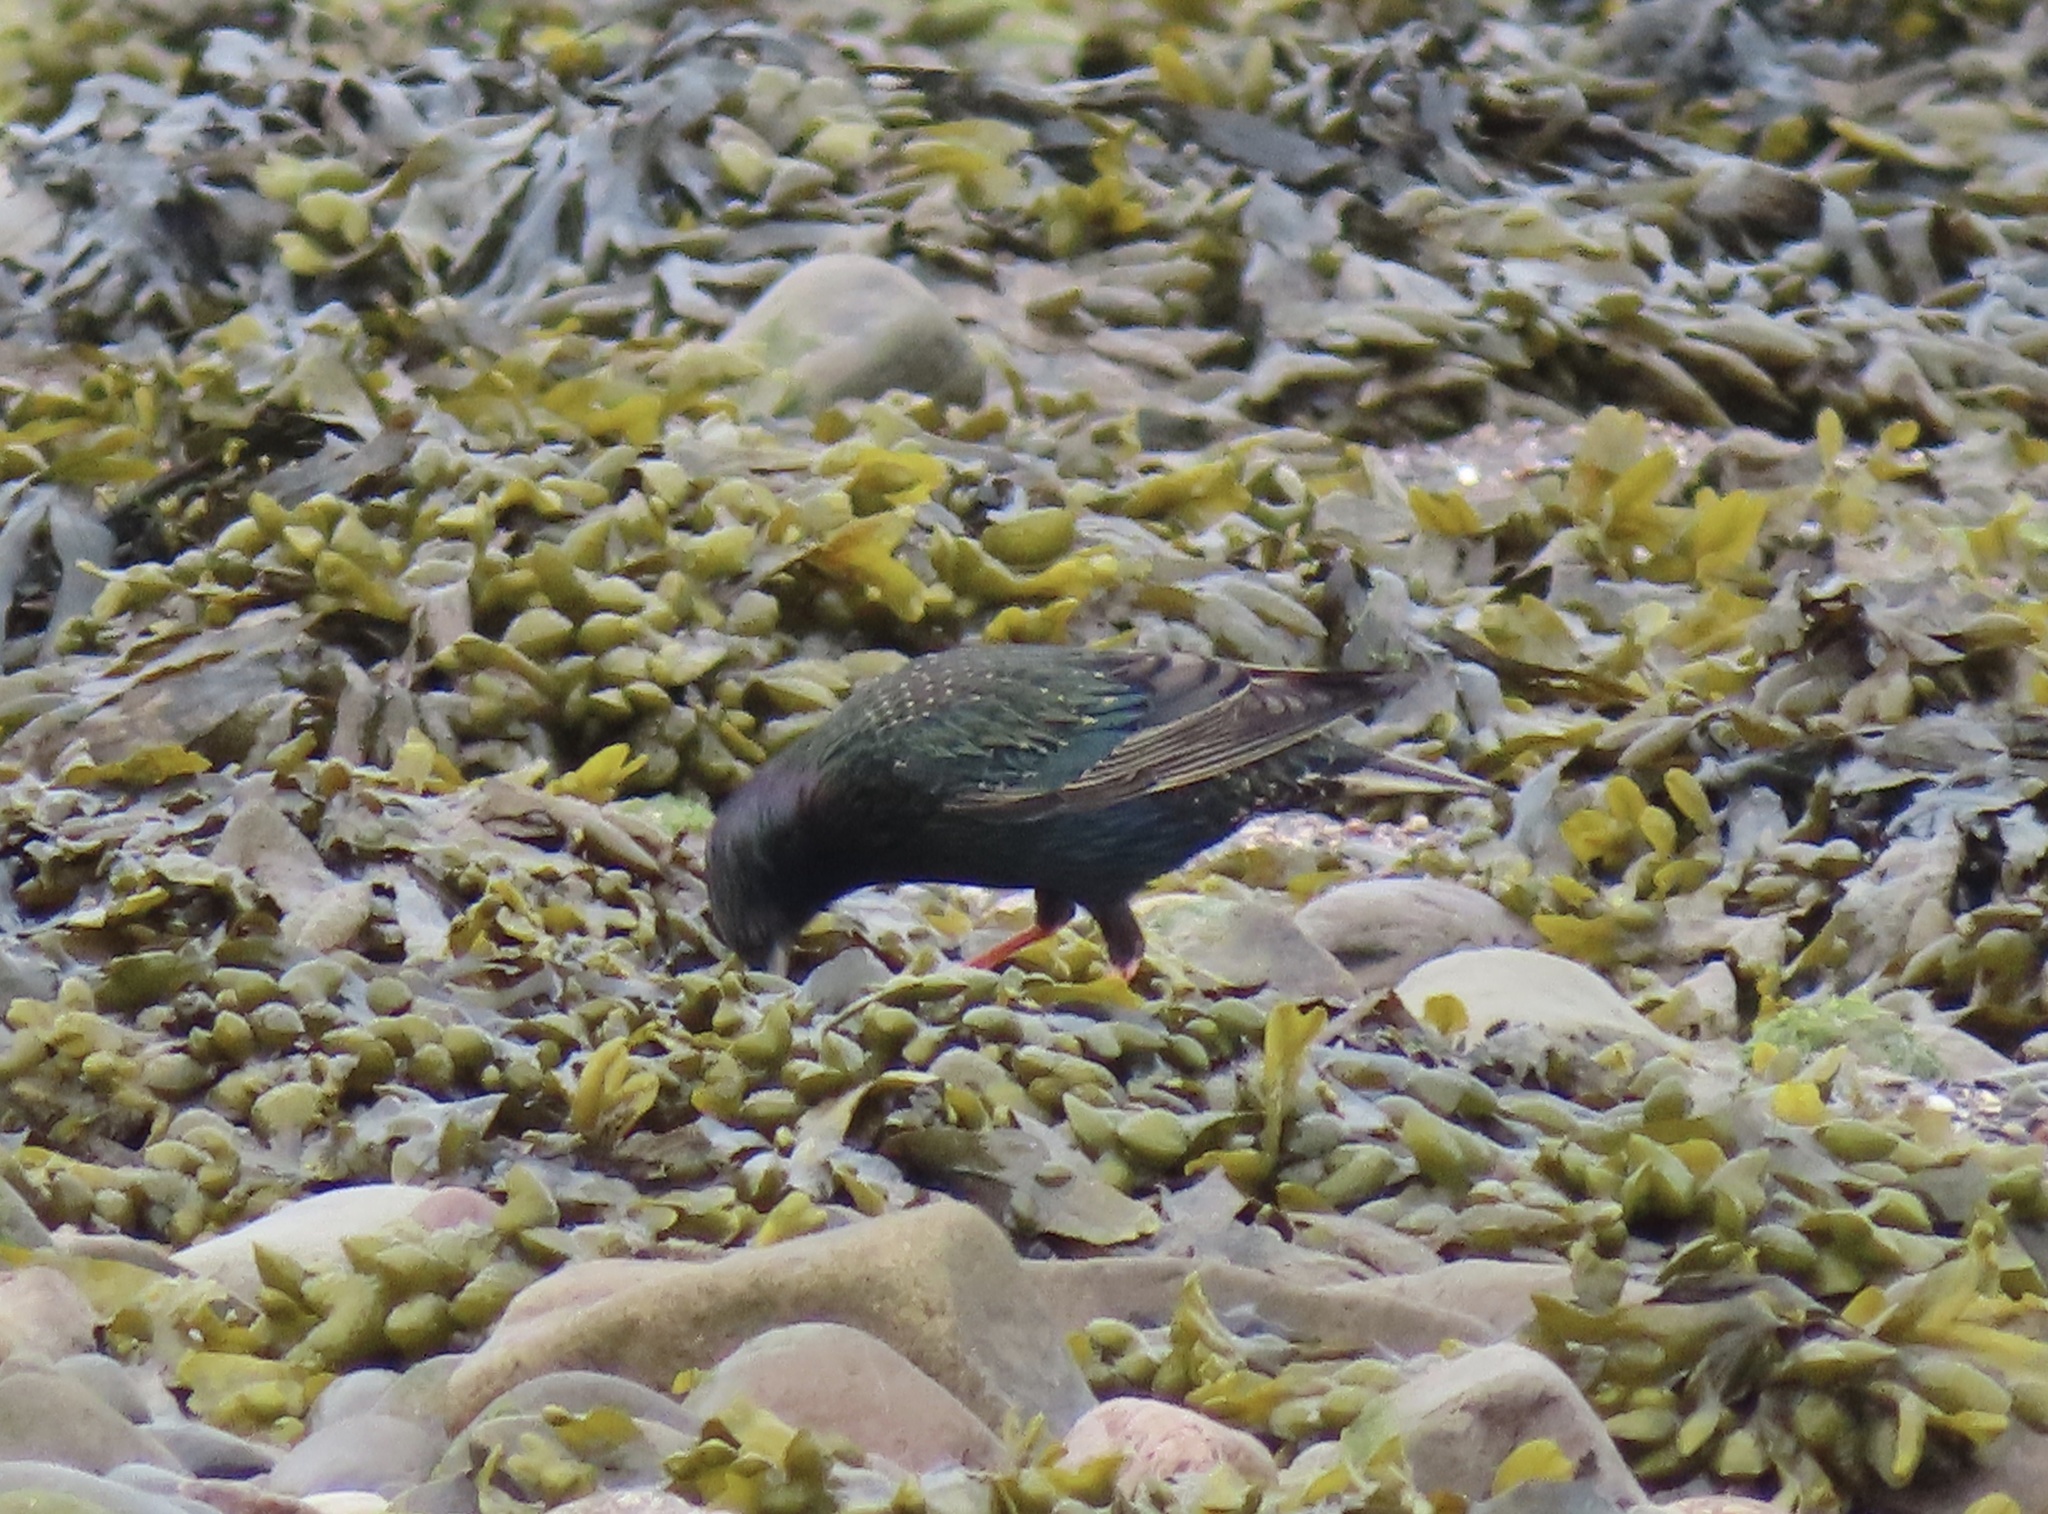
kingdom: Animalia
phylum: Chordata
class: Aves
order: Passeriformes
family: Sturnidae
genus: Sturnus
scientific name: Sturnus vulgaris
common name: Common starling
